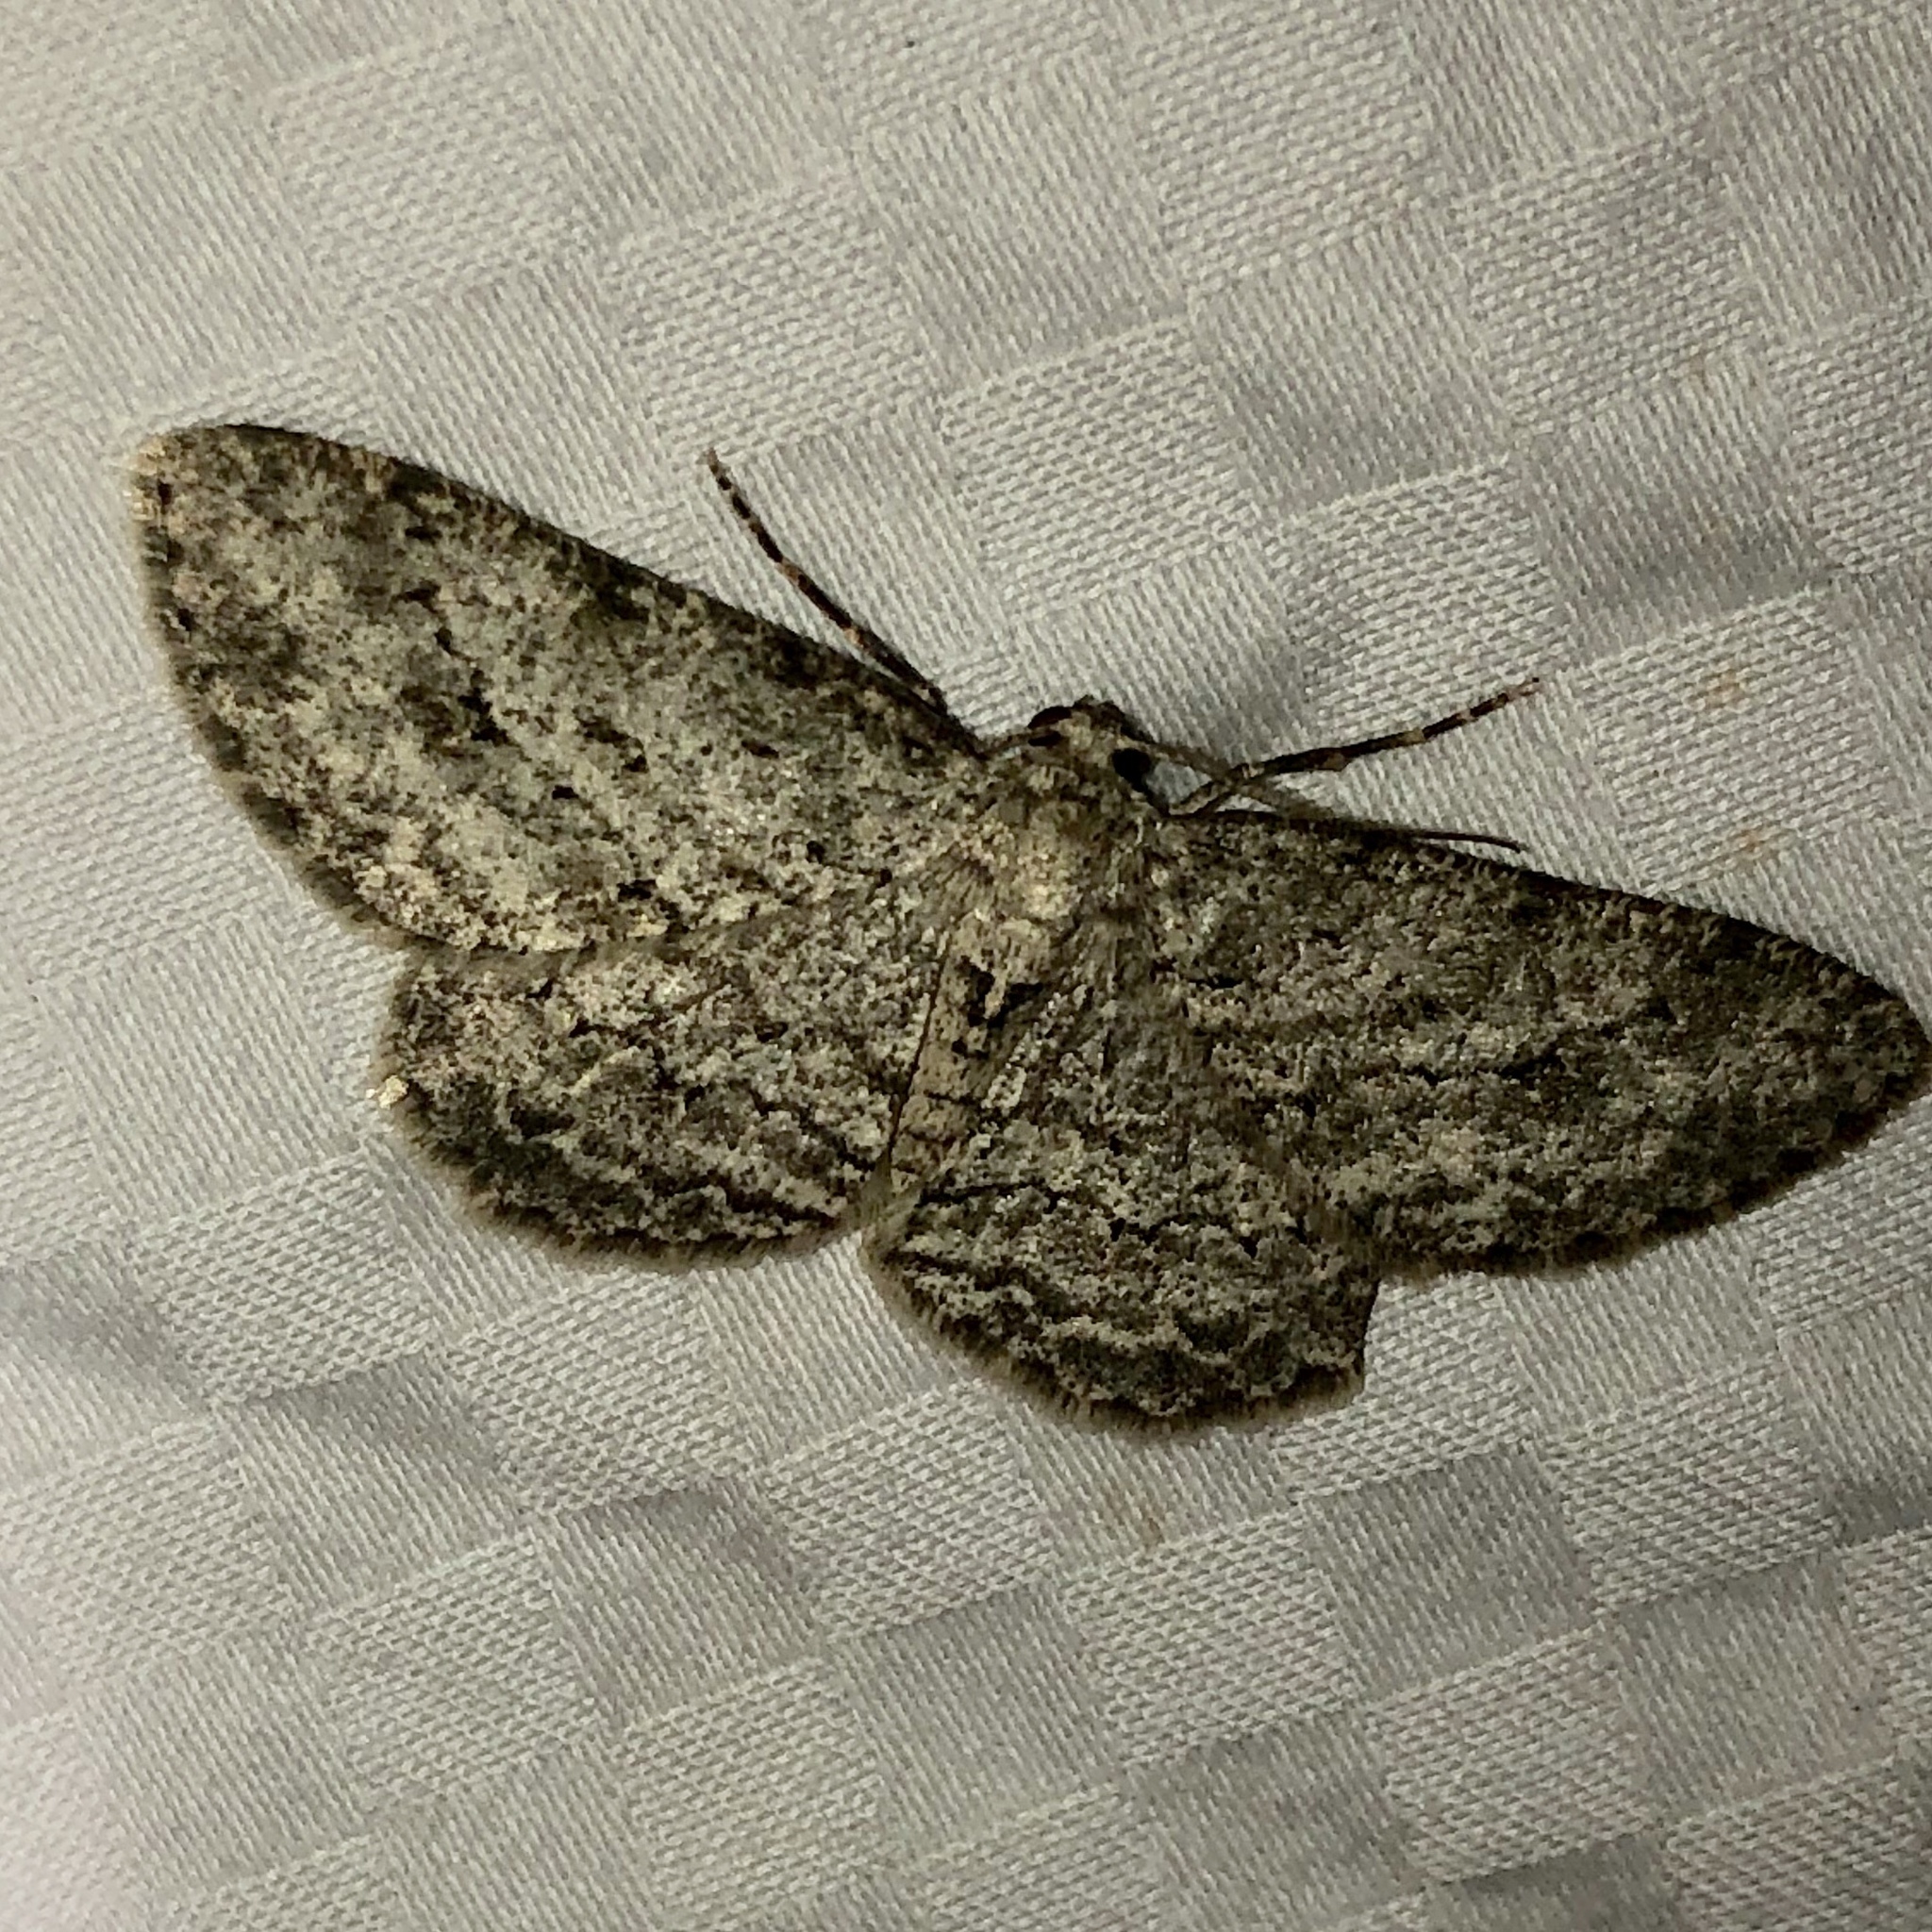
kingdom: Animalia
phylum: Arthropoda
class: Insecta
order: Lepidoptera
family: Geometridae
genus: Ectropis
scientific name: Ectropis crepuscularia
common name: Engrailed
